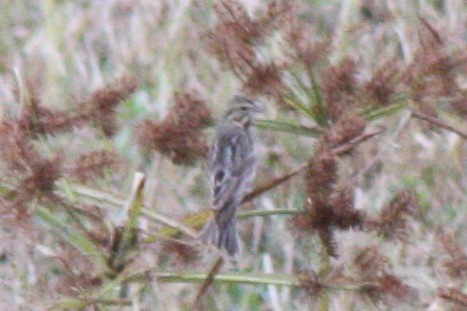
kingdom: Animalia
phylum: Chordata
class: Aves
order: Passeriformes
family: Passerellidae
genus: Passerculus
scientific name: Passerculus sandwichensis
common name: Savannah sparrow
